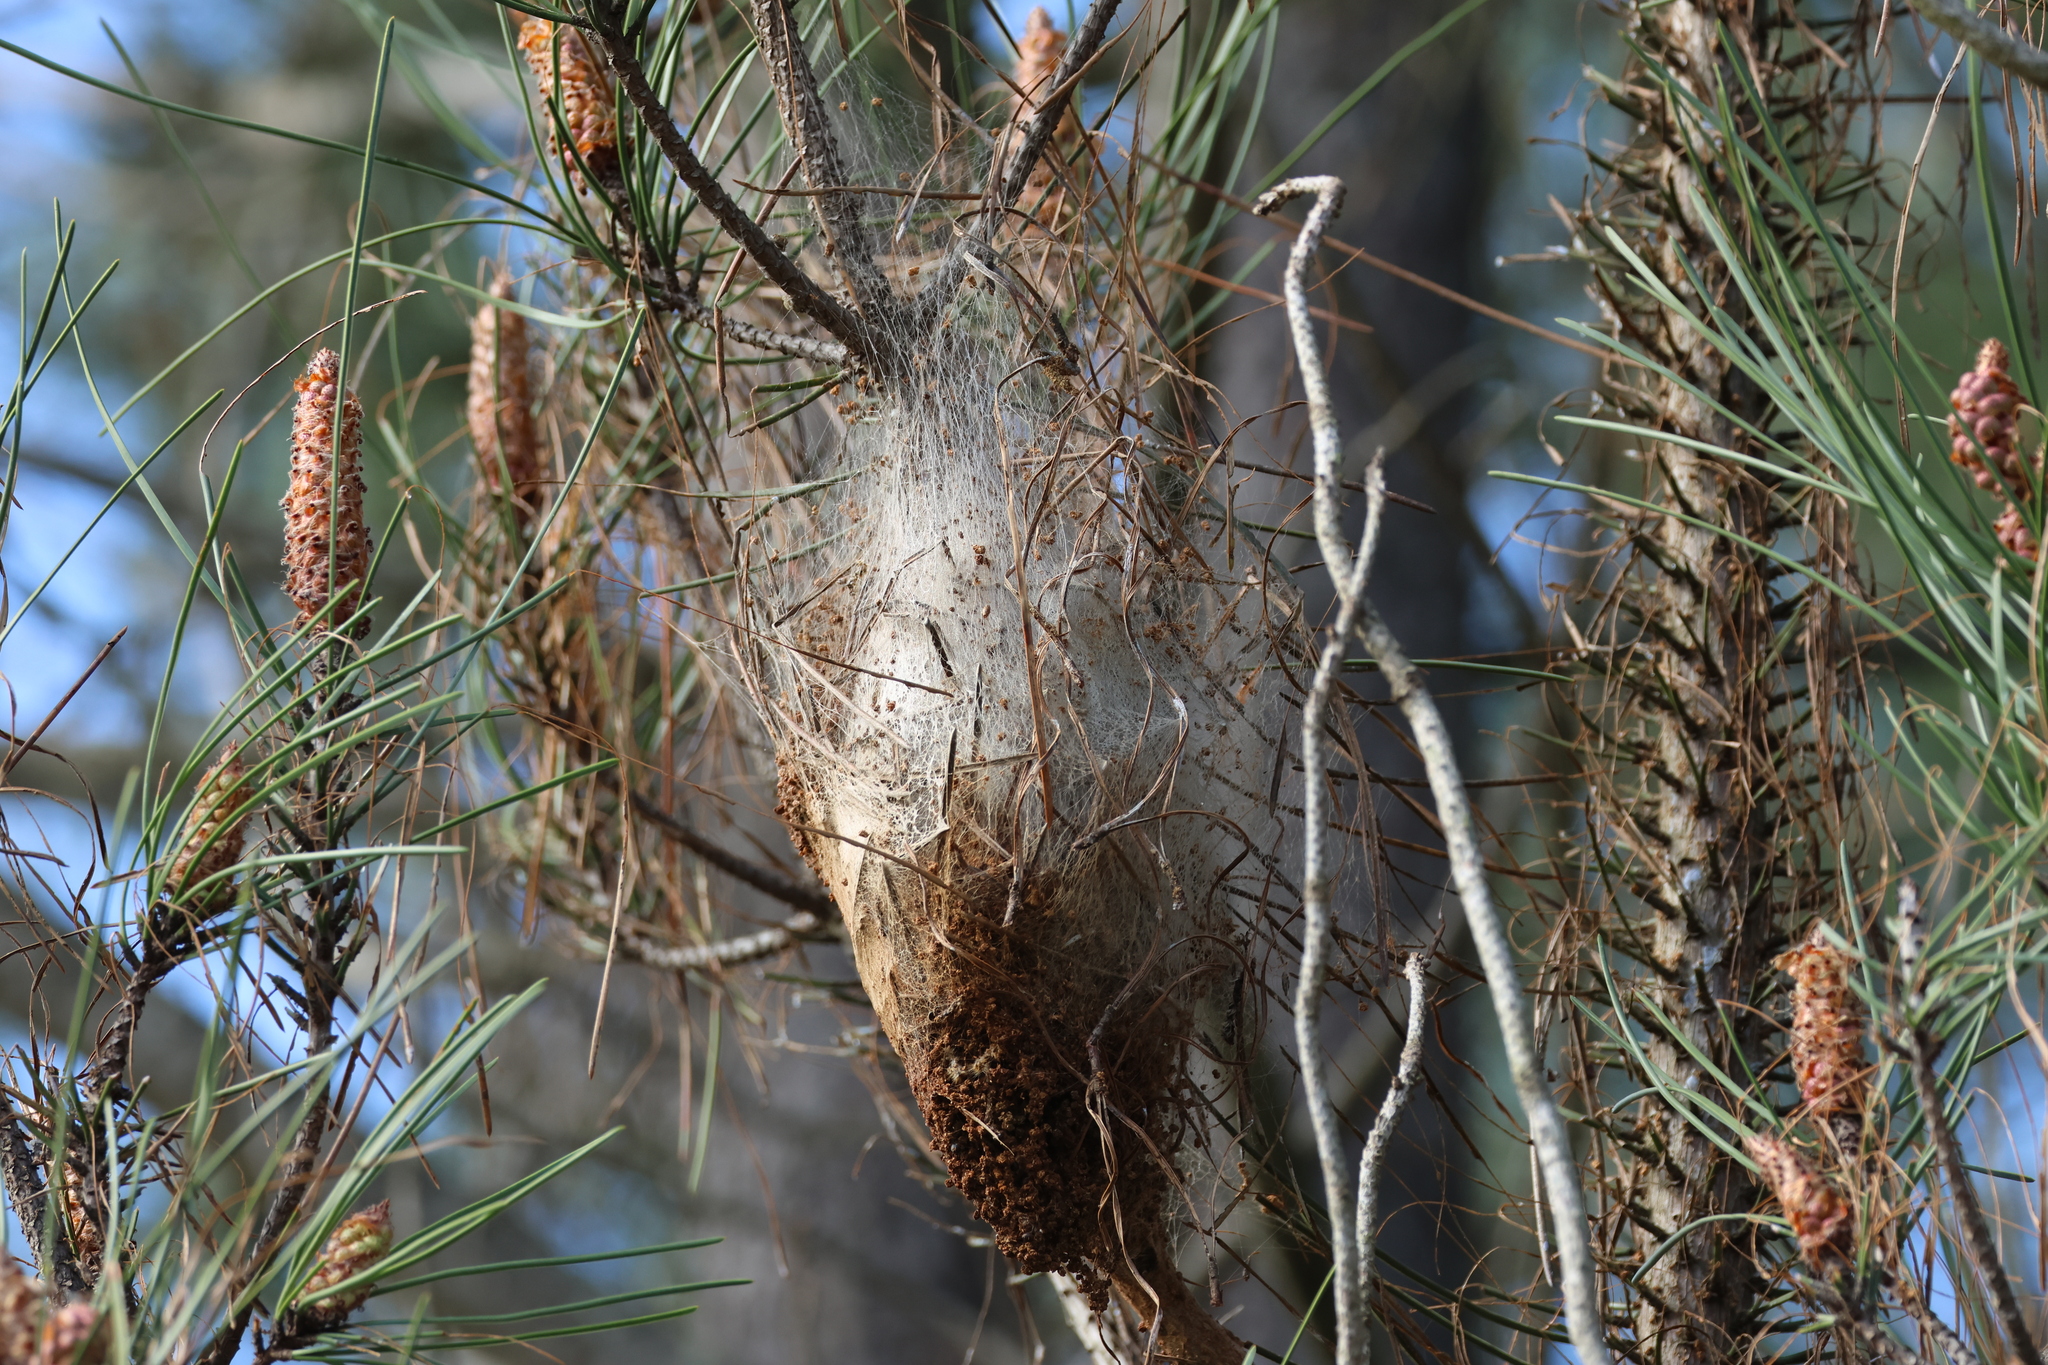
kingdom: Animalia
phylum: Arthropoda
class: Insecta
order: Lepidoptera
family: Notodontidae
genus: Thaumetopoea
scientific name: Thaumetopoea pityocampa
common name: Pine processionary
